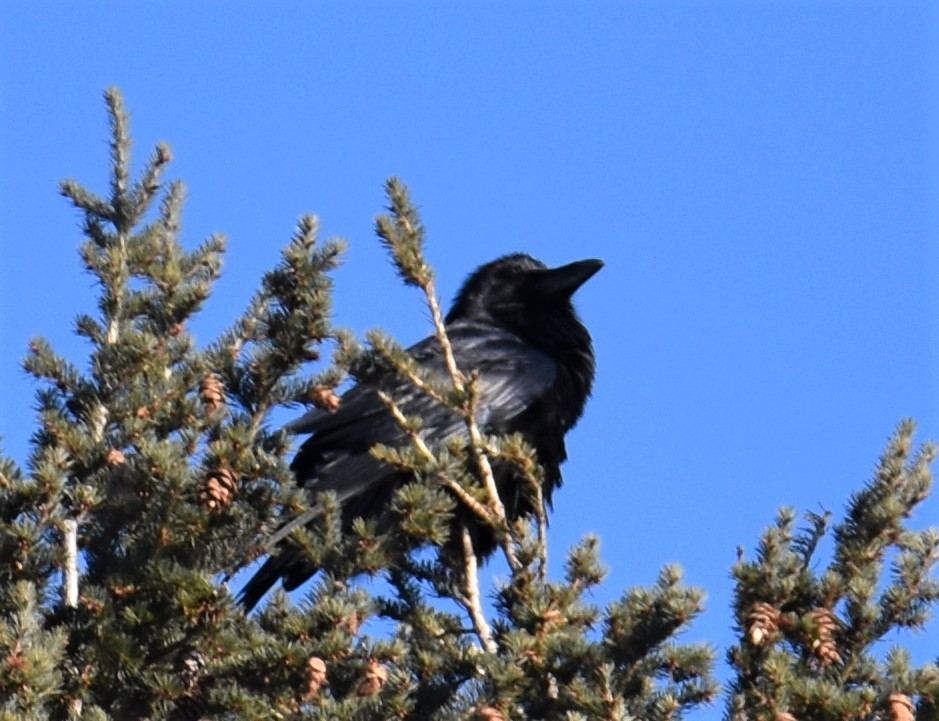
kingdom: Animalia
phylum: Chordata
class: Aves
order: Passeriformes
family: Corvidae
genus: Corvus
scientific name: Corvus corax
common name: Common raven
